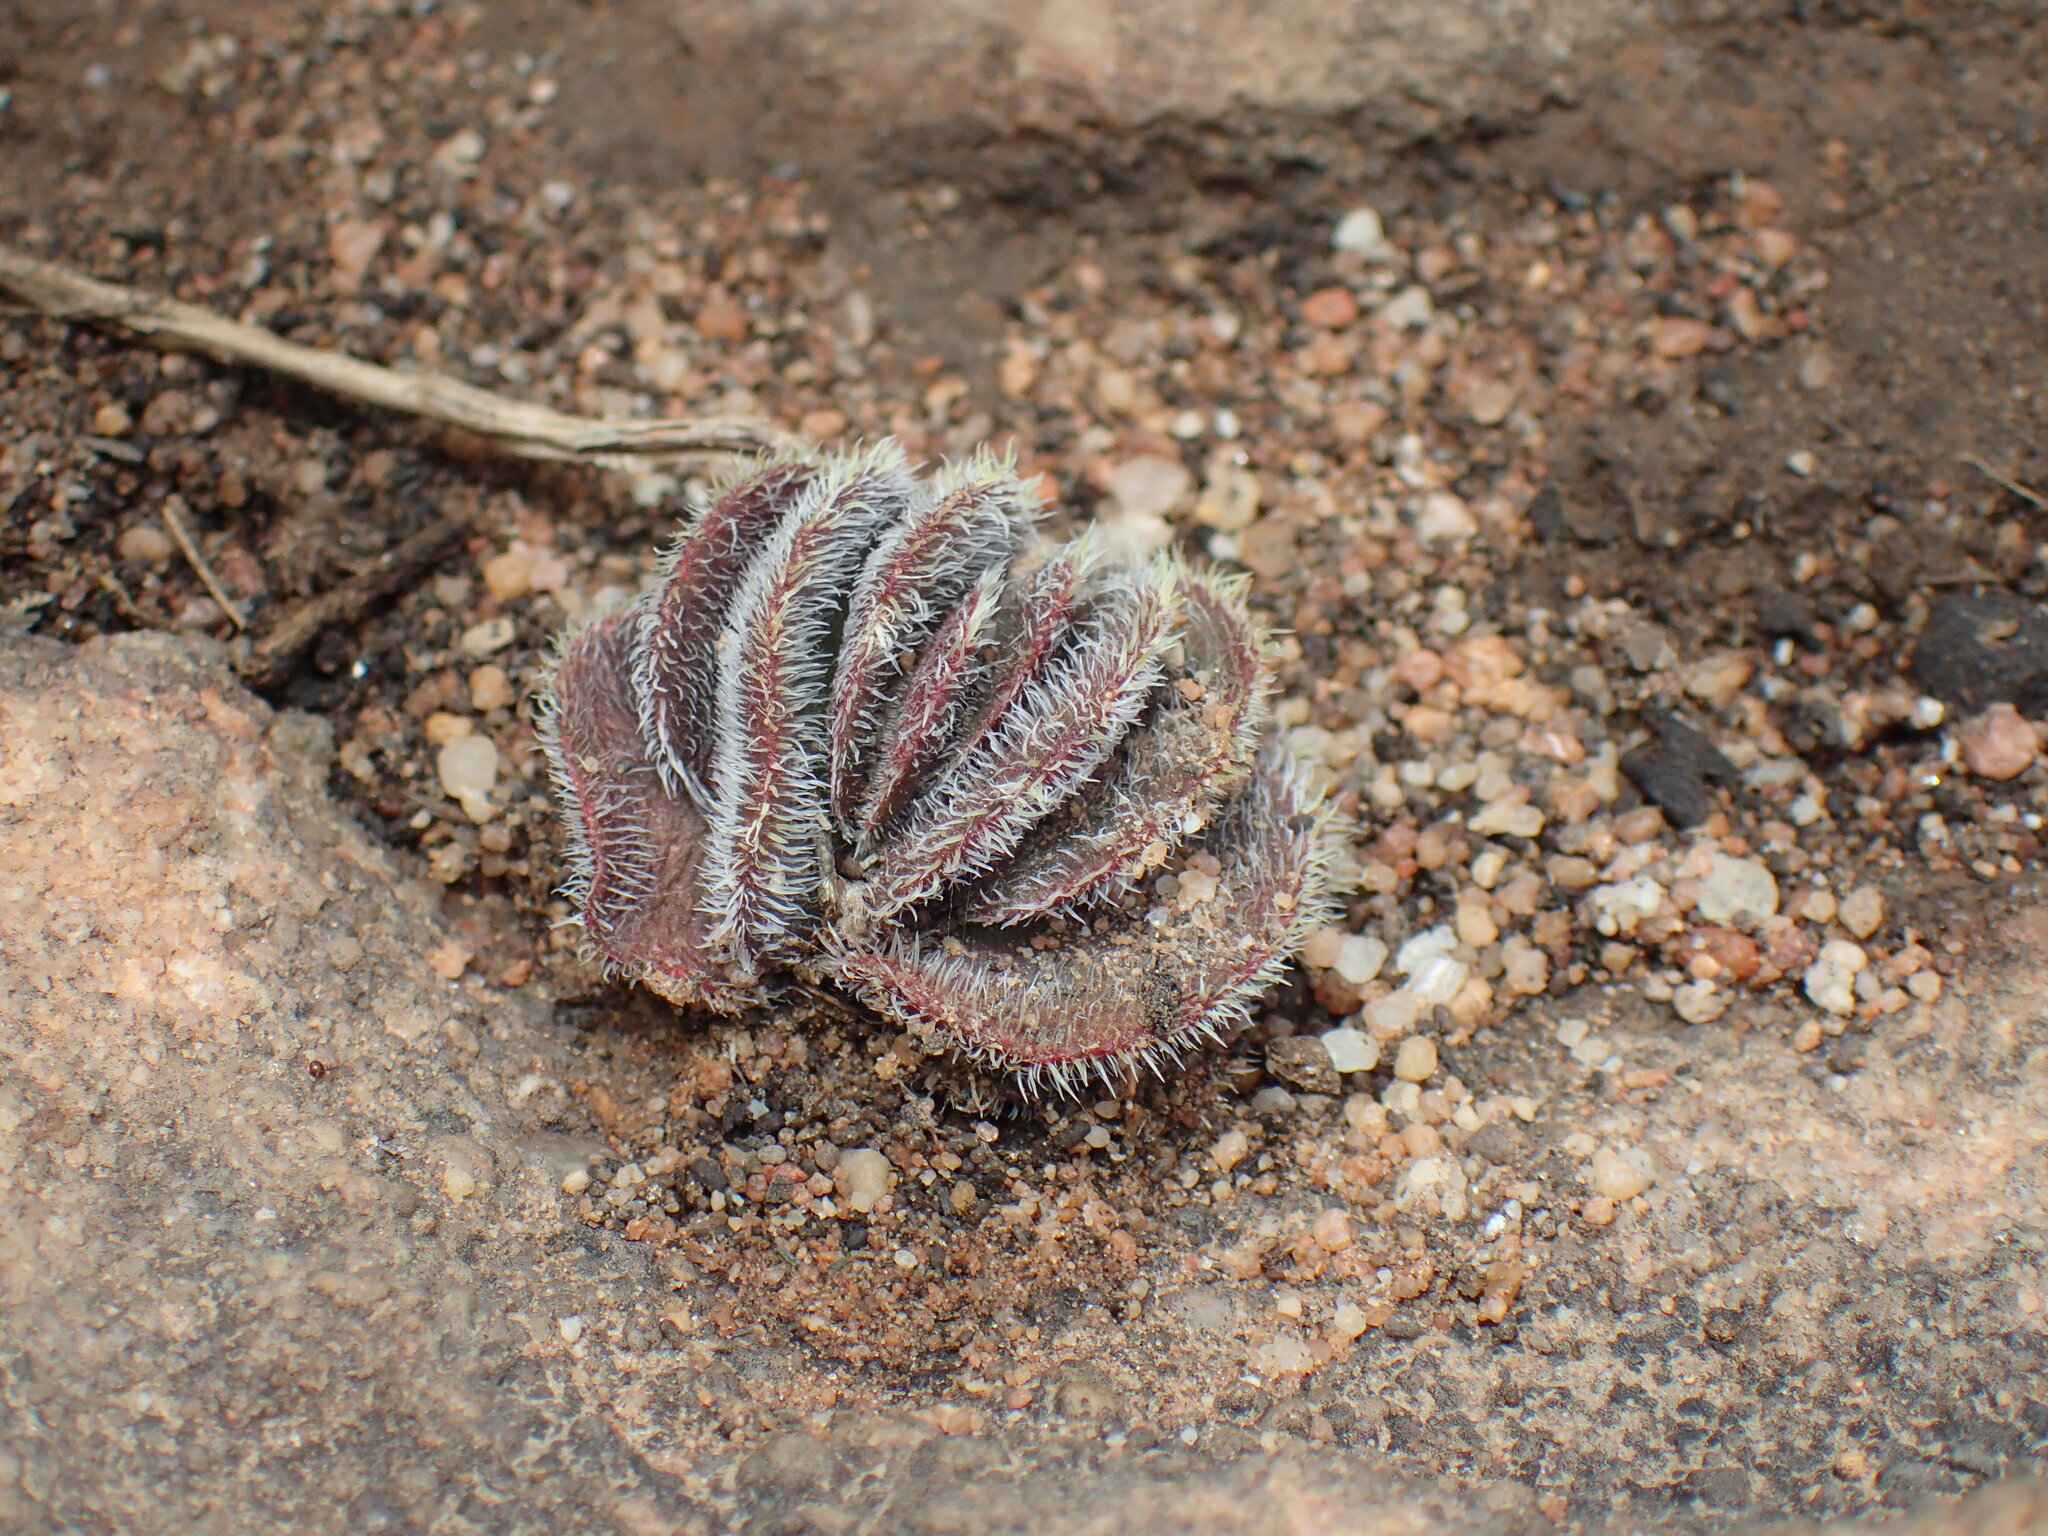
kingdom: Plantae
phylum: Tracheophyta
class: Magnoliopsida
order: Saxifragales
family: Crassulaceae
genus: Crassula
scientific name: Crassula tomentosa
